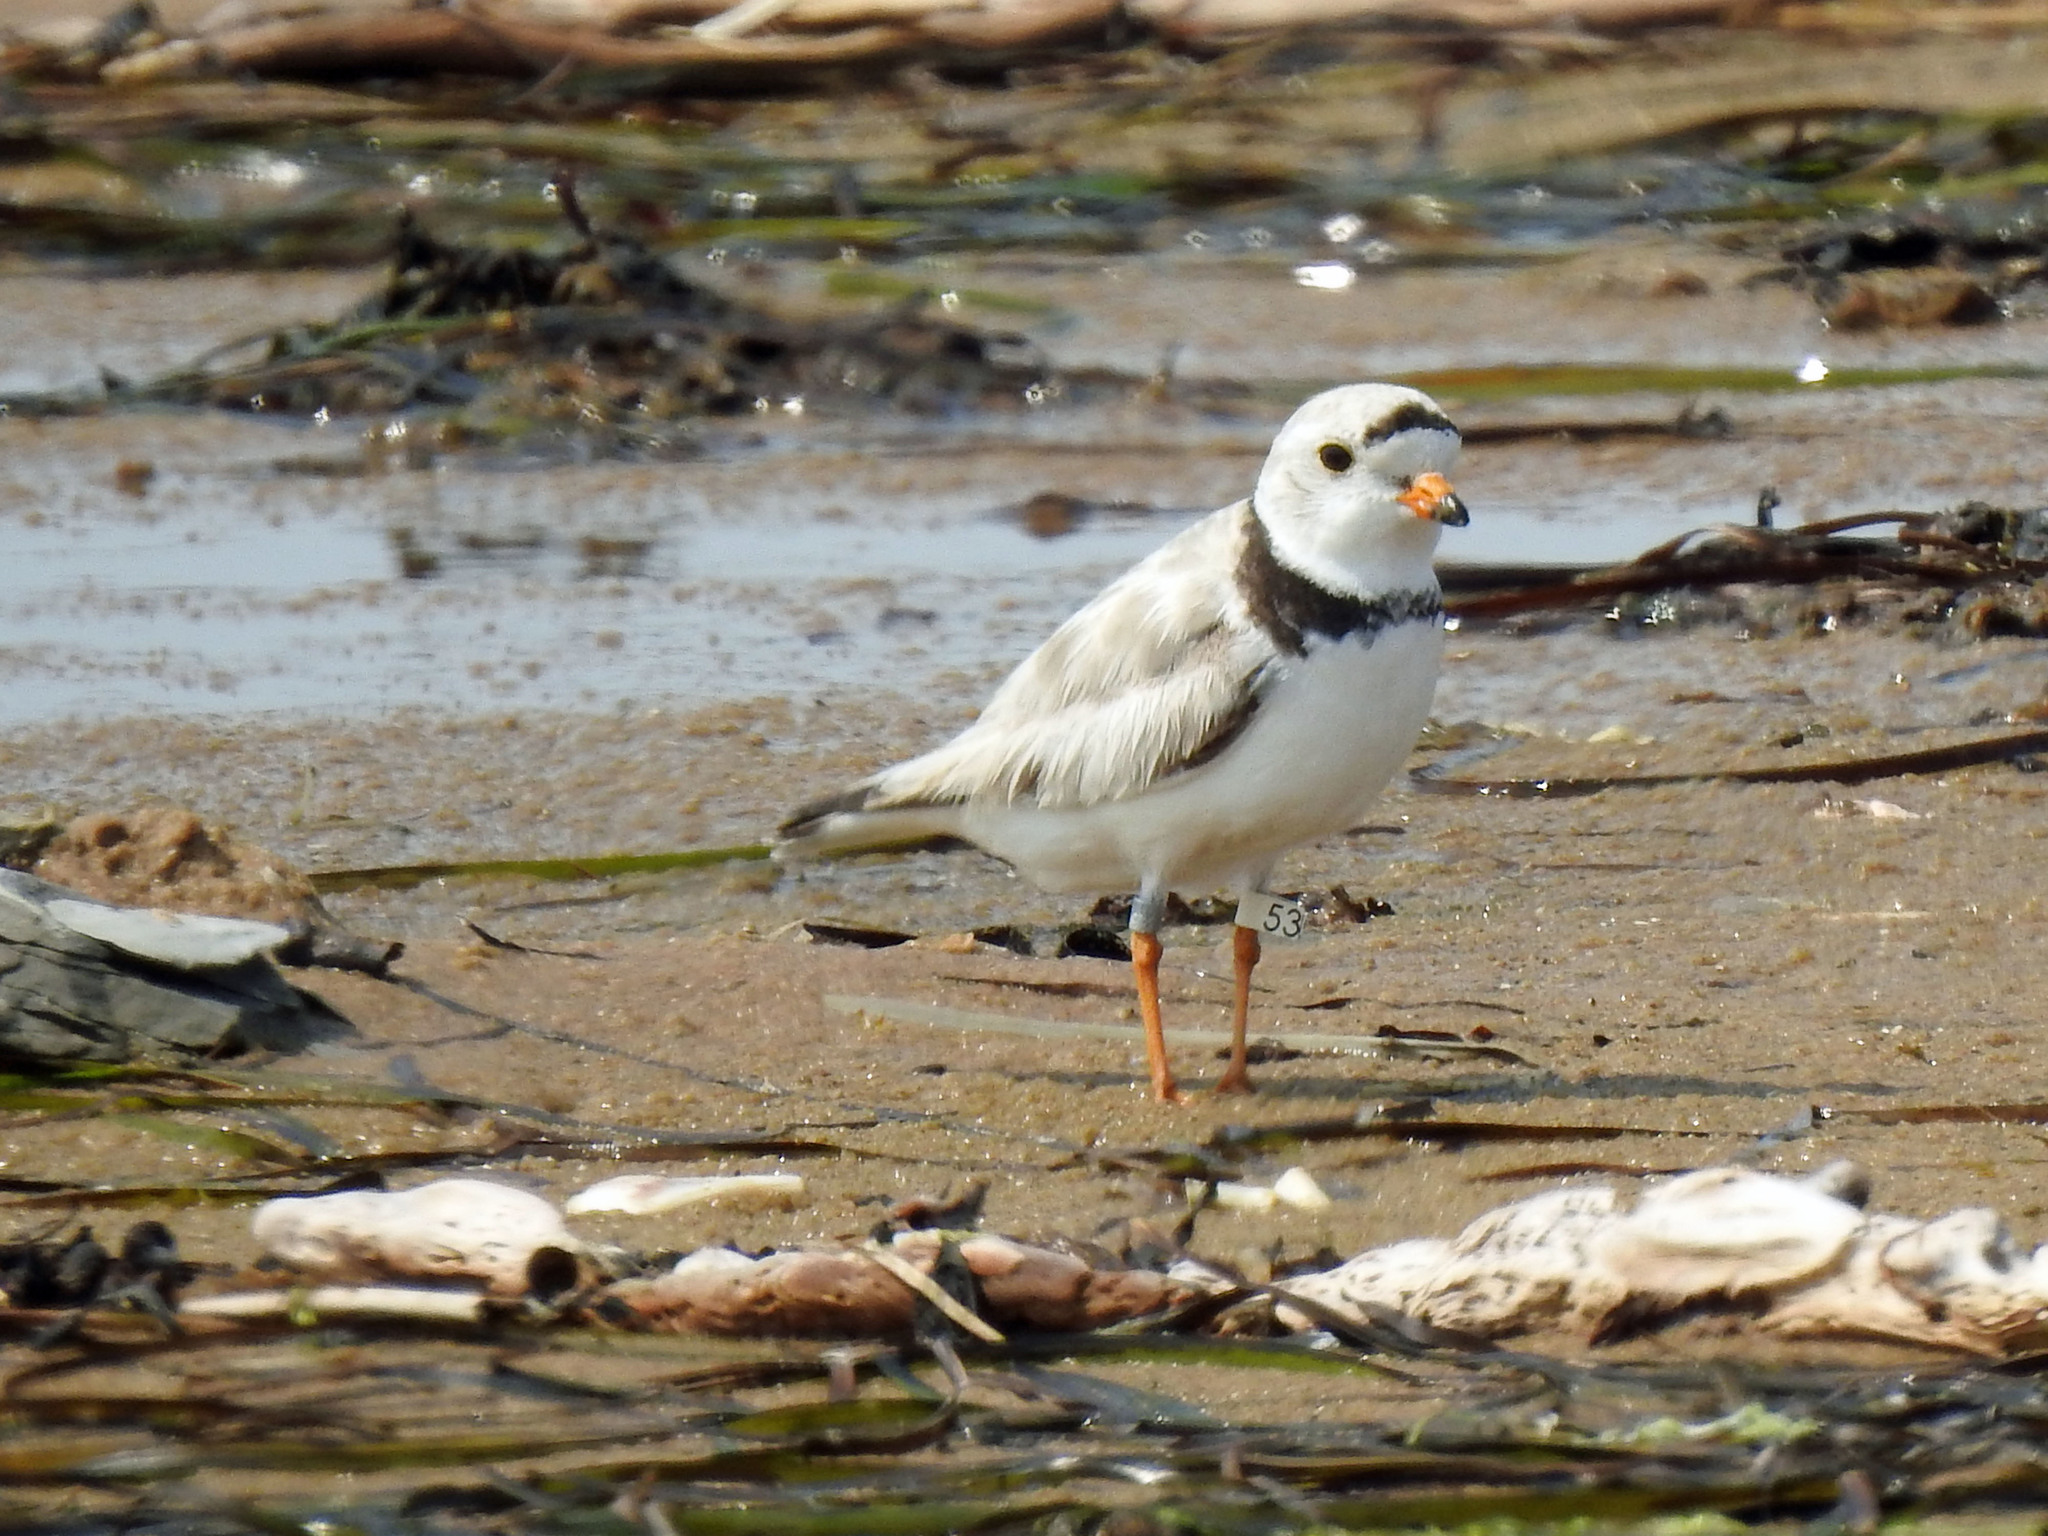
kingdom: Animalia
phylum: Chordata
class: Aves
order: Charadriiformes
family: Charadriidae
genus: Charadrius
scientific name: Charadrius melodus
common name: Piping plover
